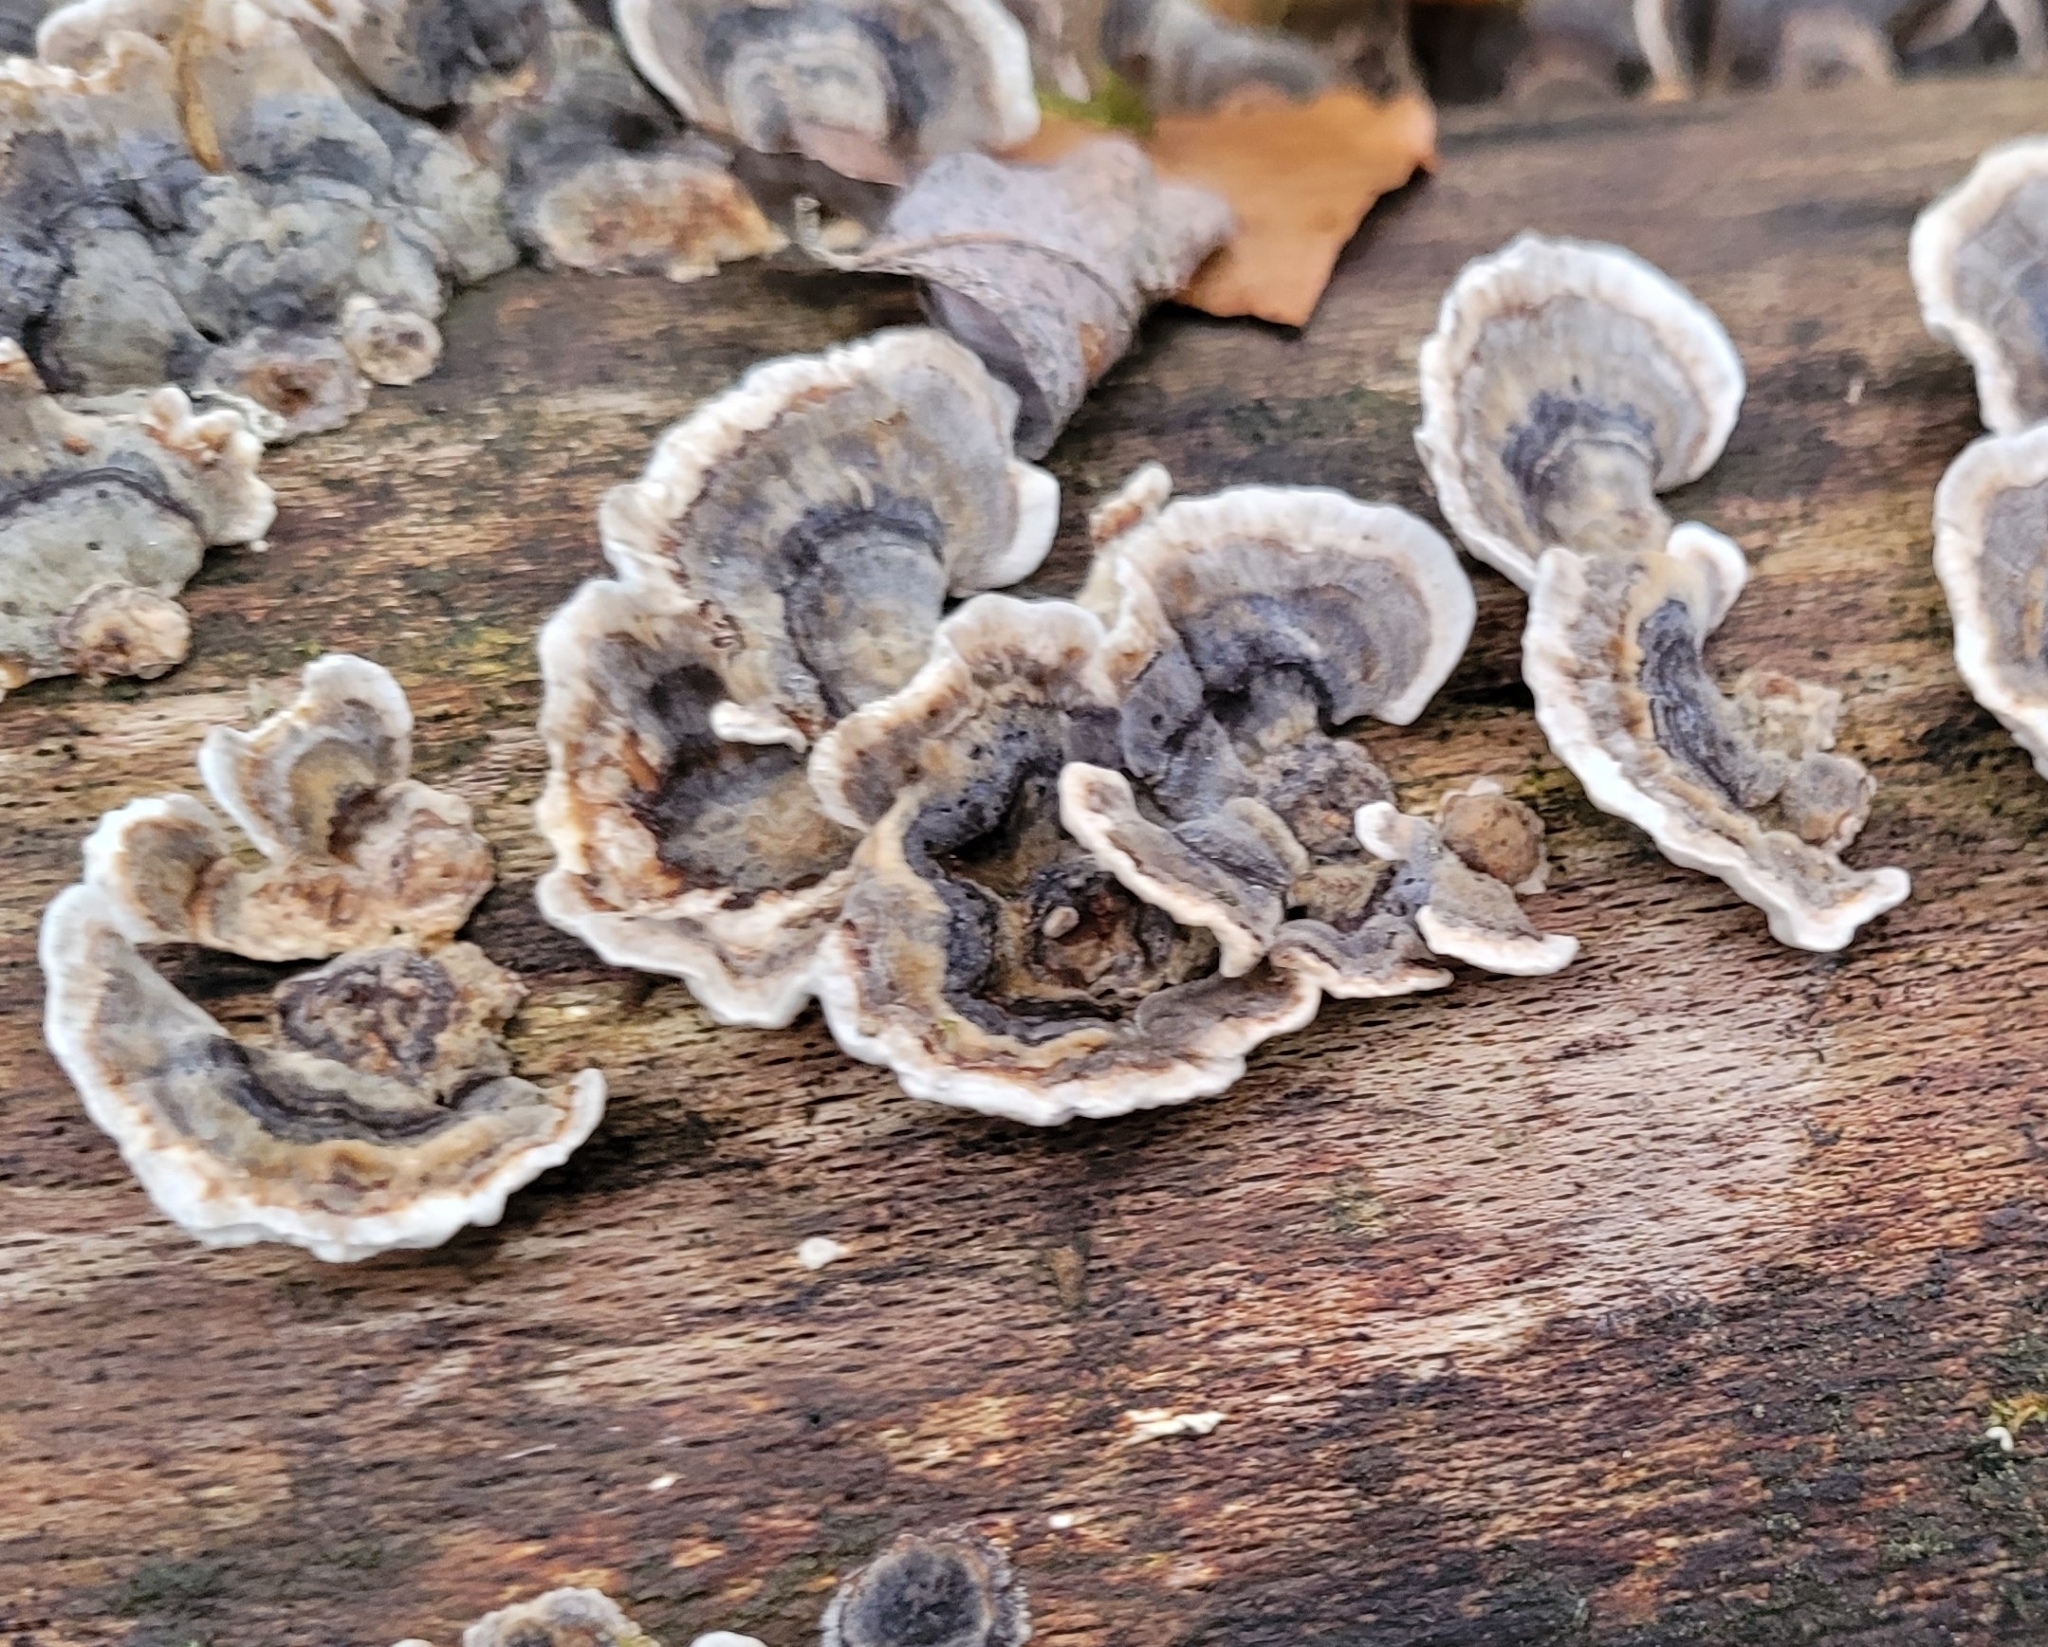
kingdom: Fungi
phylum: Basidiomycota
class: Agaricomycetes
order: Polyporales
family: Polyporaceae
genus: Trametes
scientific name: Trametes versicolor
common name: Turkeytail
